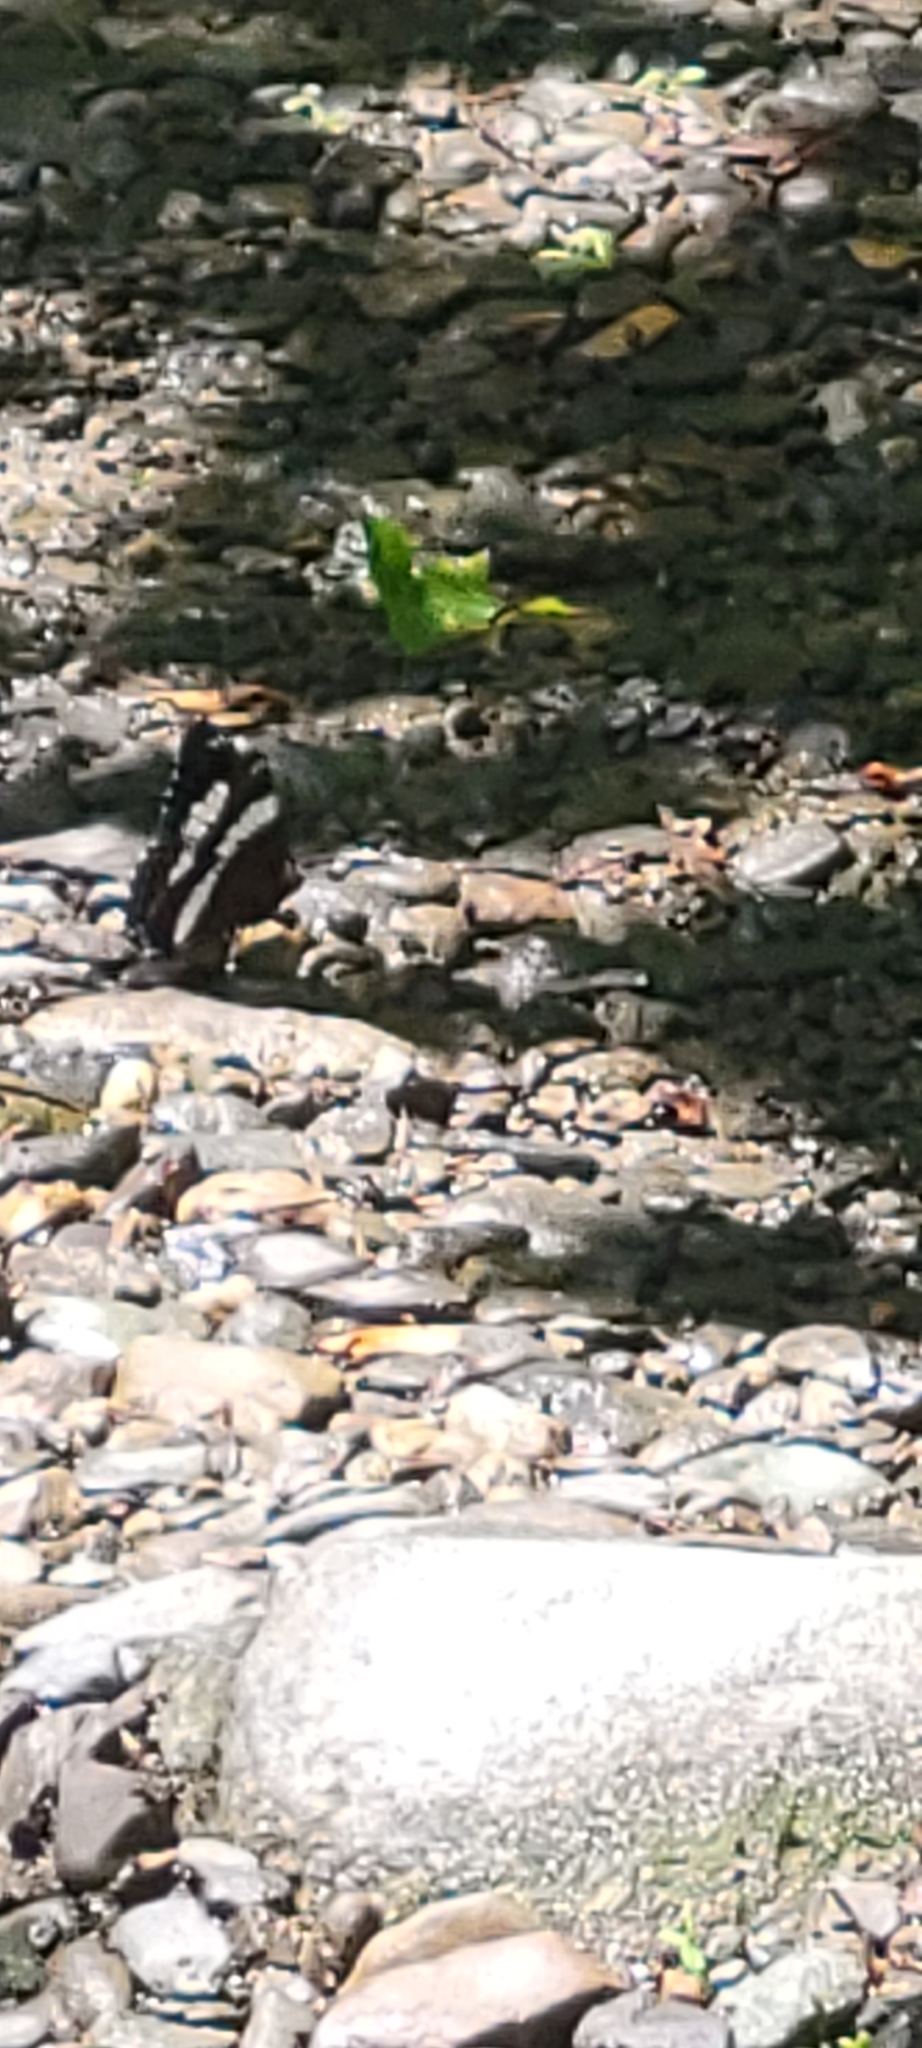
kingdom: Animalia
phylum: Arthropoda
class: Insecta
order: Lepidoptera
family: Nymphalidae
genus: Limenitis
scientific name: Limenitis arthemis
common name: Red-spotted admiral
